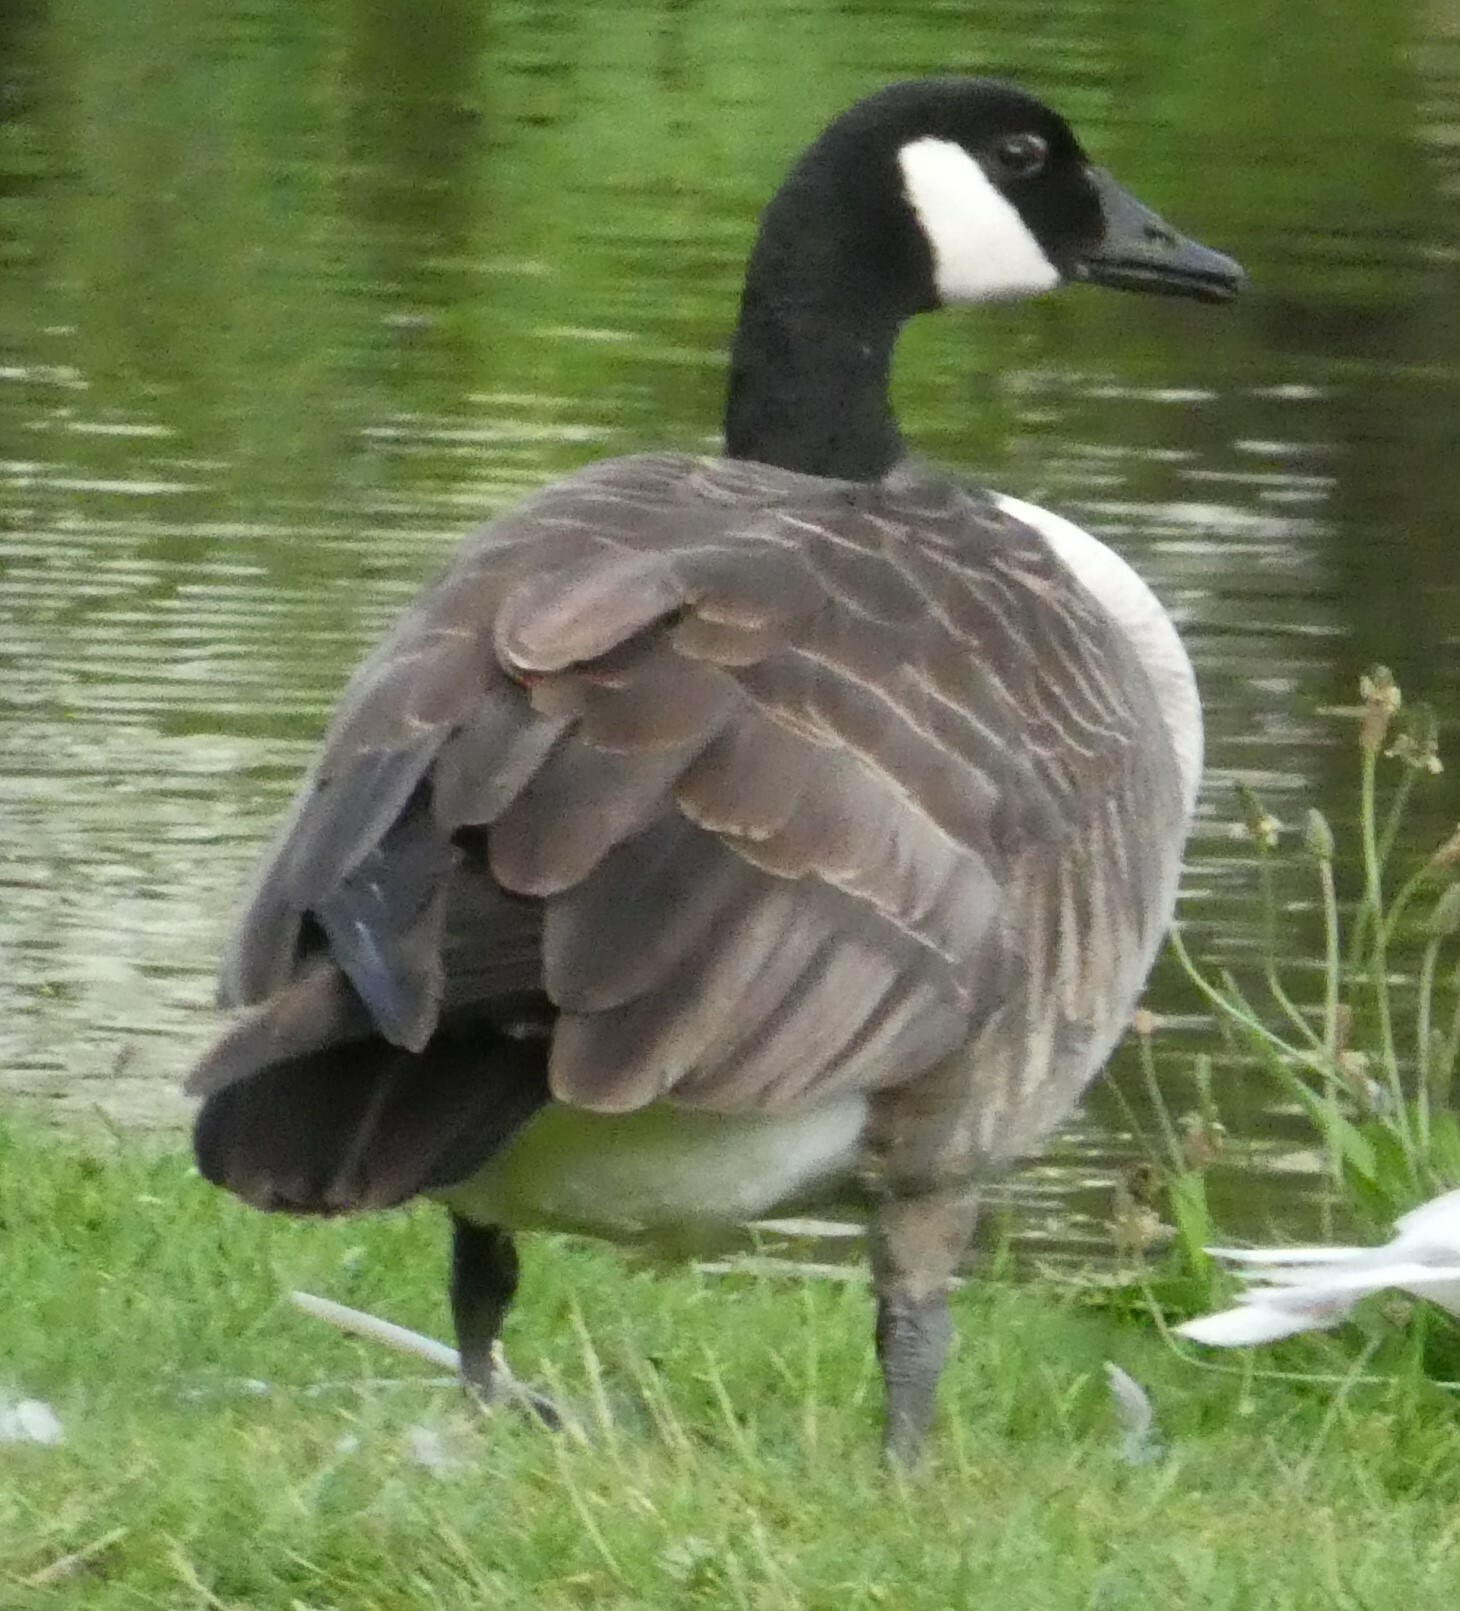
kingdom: Animalia
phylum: Chordata
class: Aves
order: Anseriformes
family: Anatidae
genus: Branta
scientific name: Branta canadensis
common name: Canada goose
